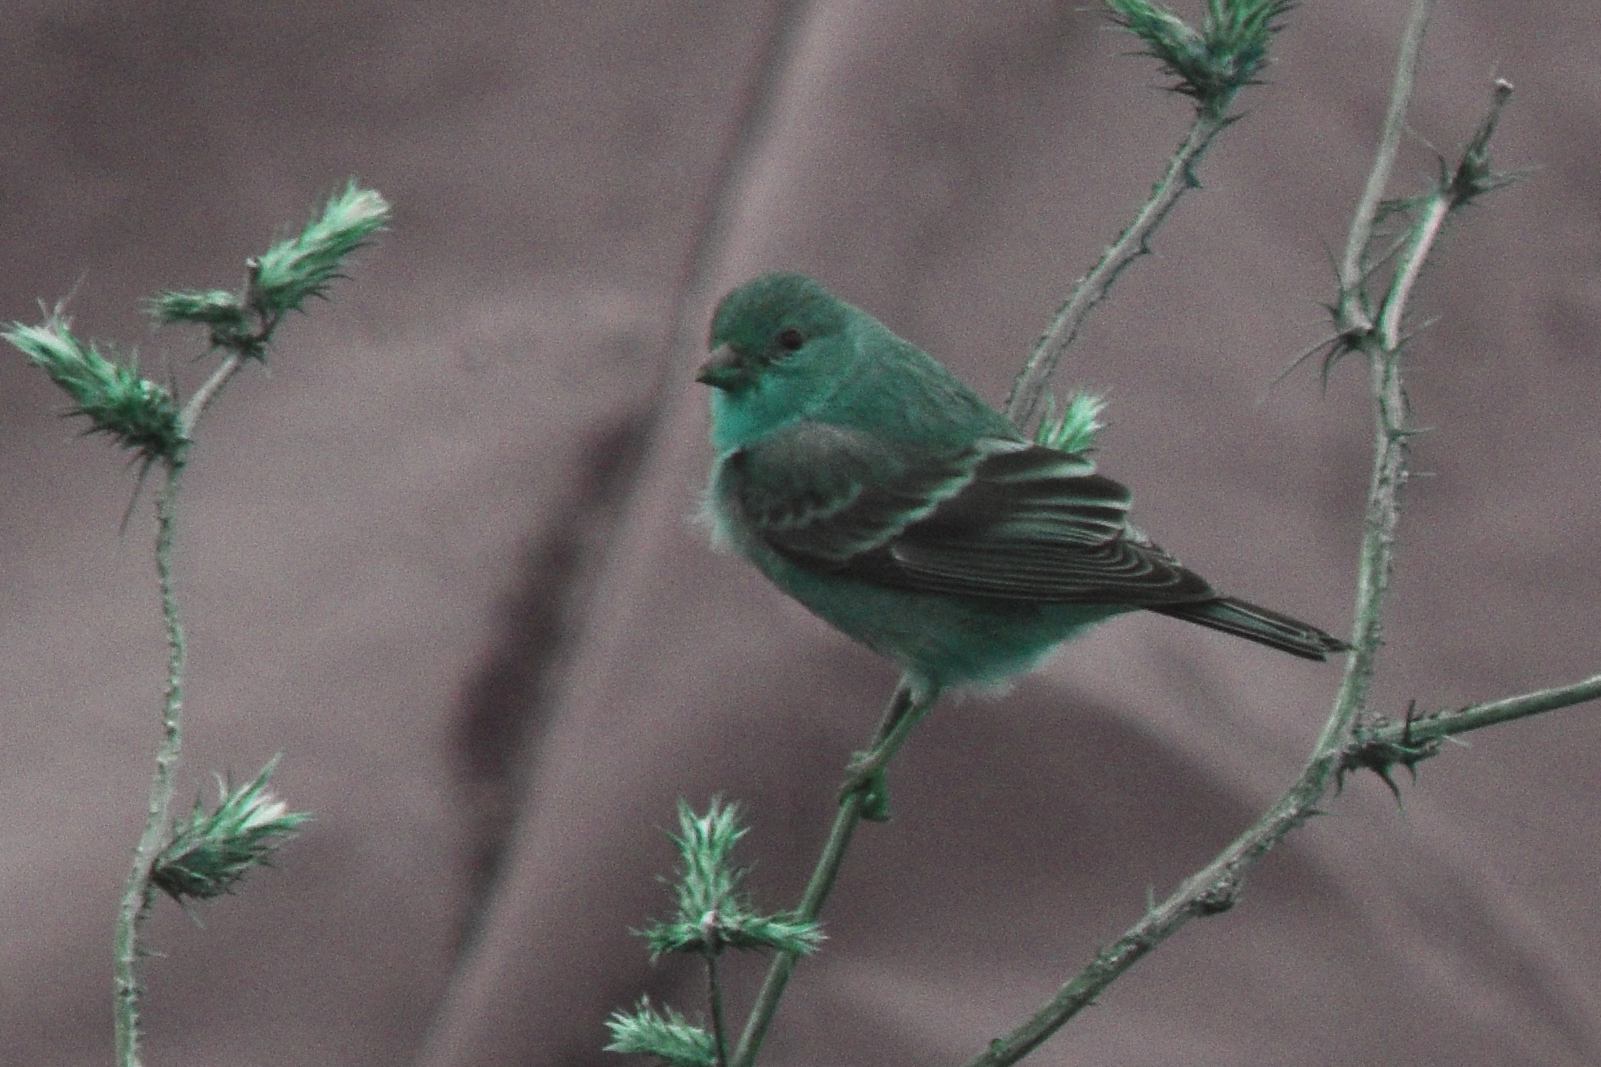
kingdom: Animalia
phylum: Chordata
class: Aves
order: Passeriformes
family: Fringillidae
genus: Spinus
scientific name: Spinus psaltria
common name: Lesser goldfinch
